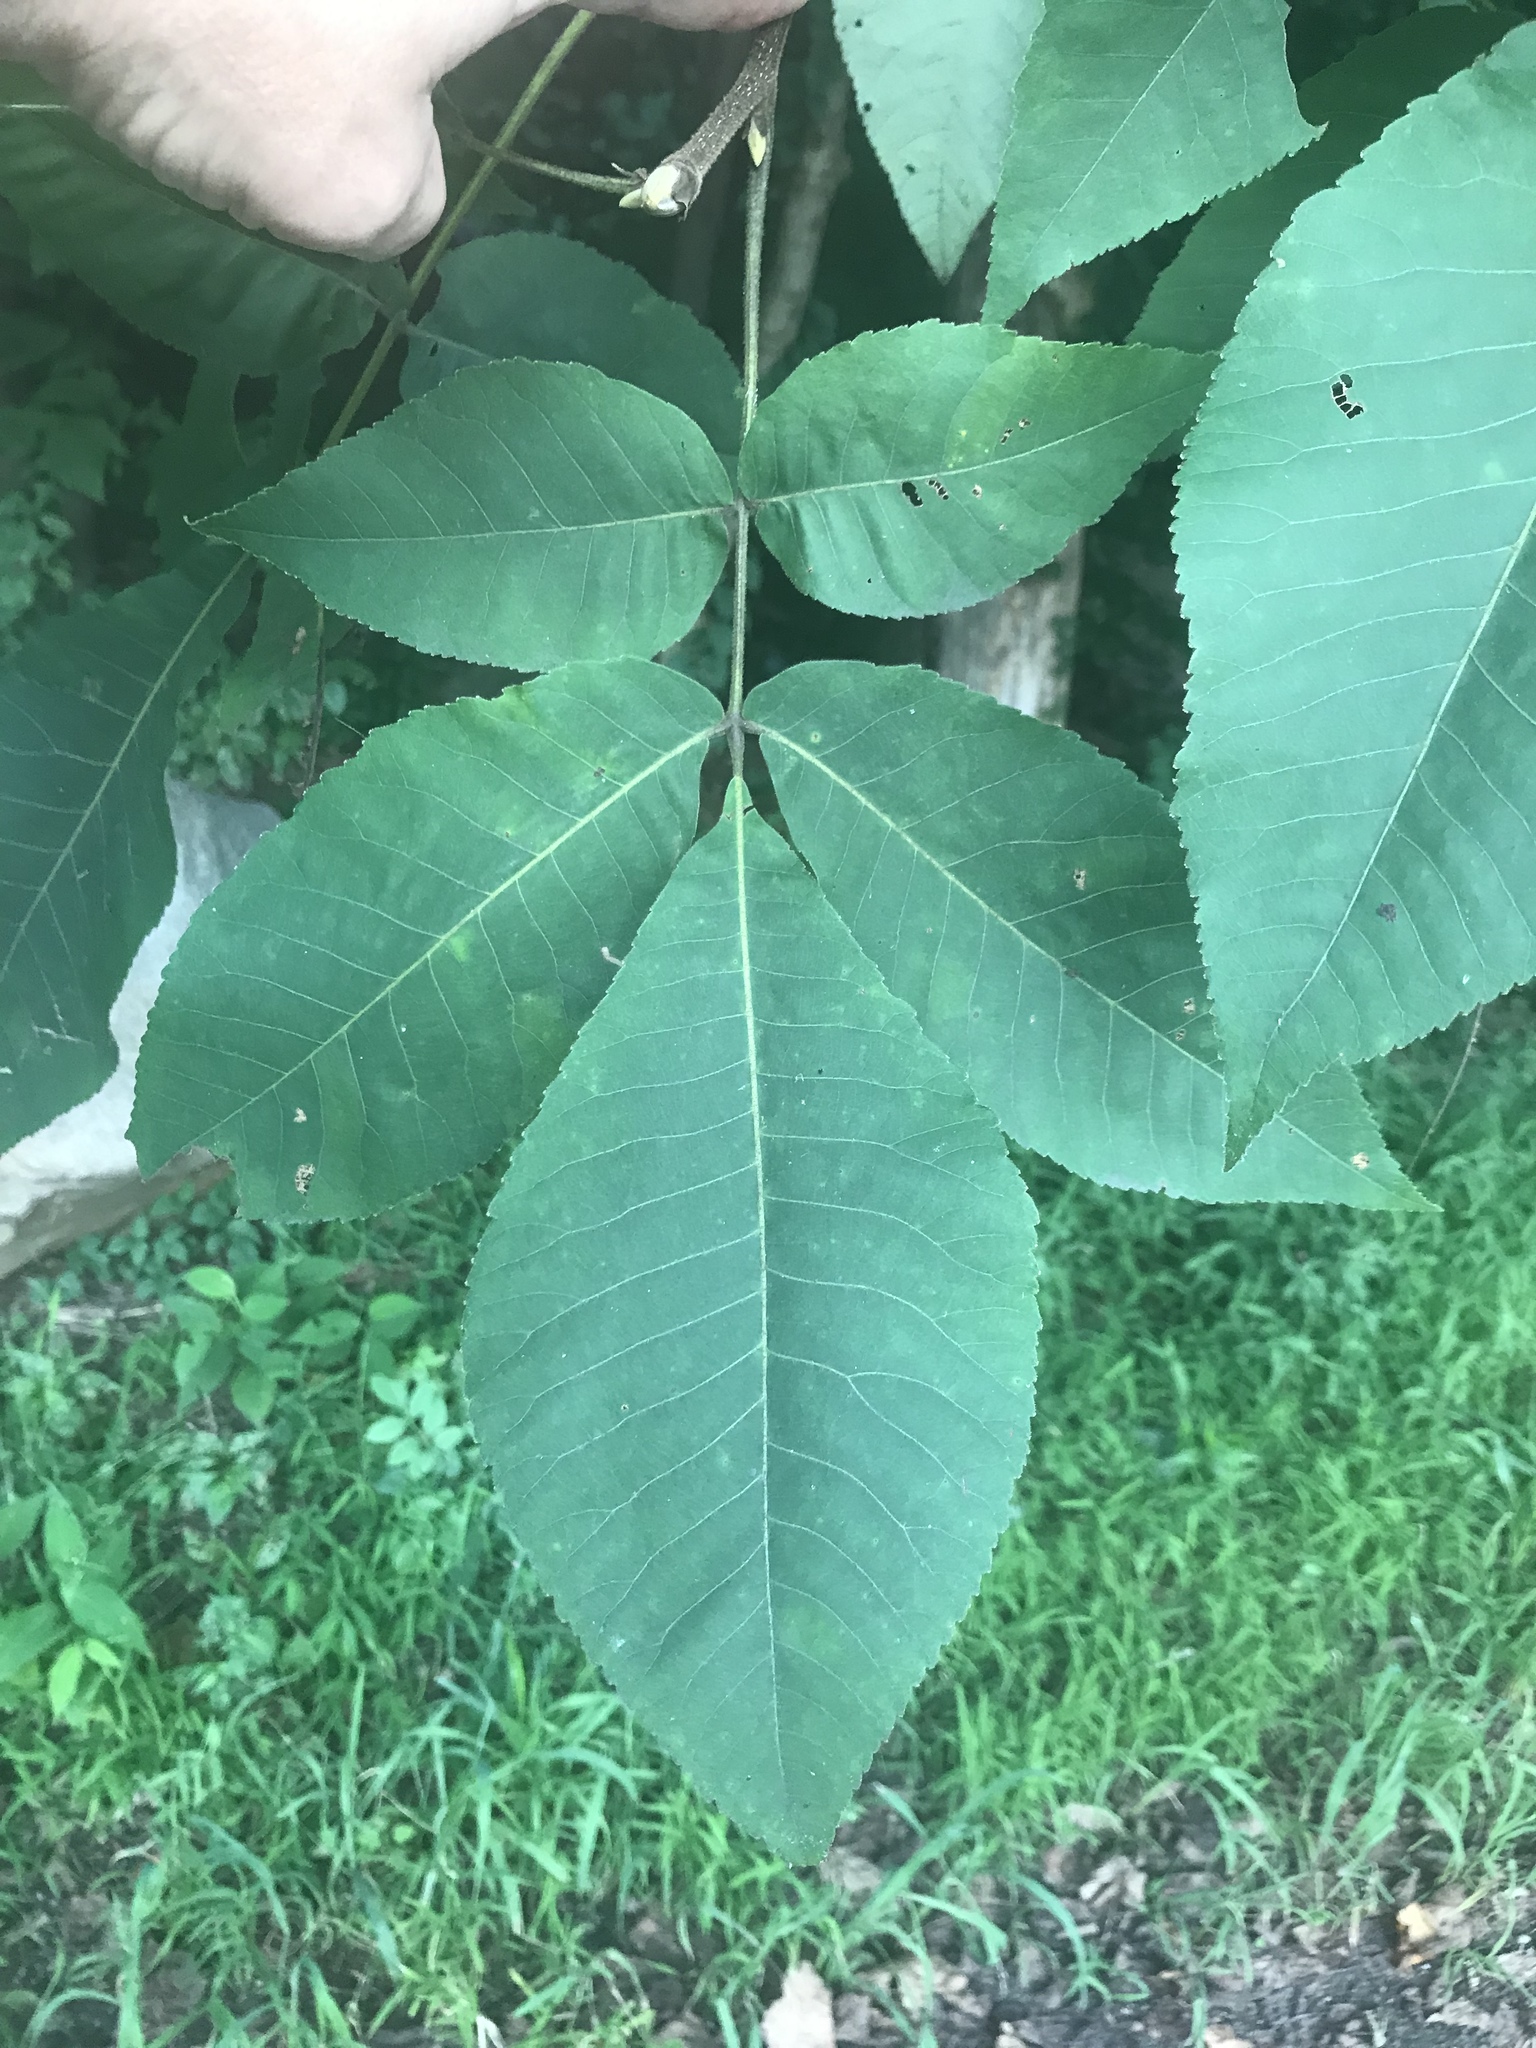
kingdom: Plantae
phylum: Tracheophyta
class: Magnoliopsida
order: Fagales
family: Juglandaceae
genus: Carya
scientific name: Carya ovata
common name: Shagbark hickory
